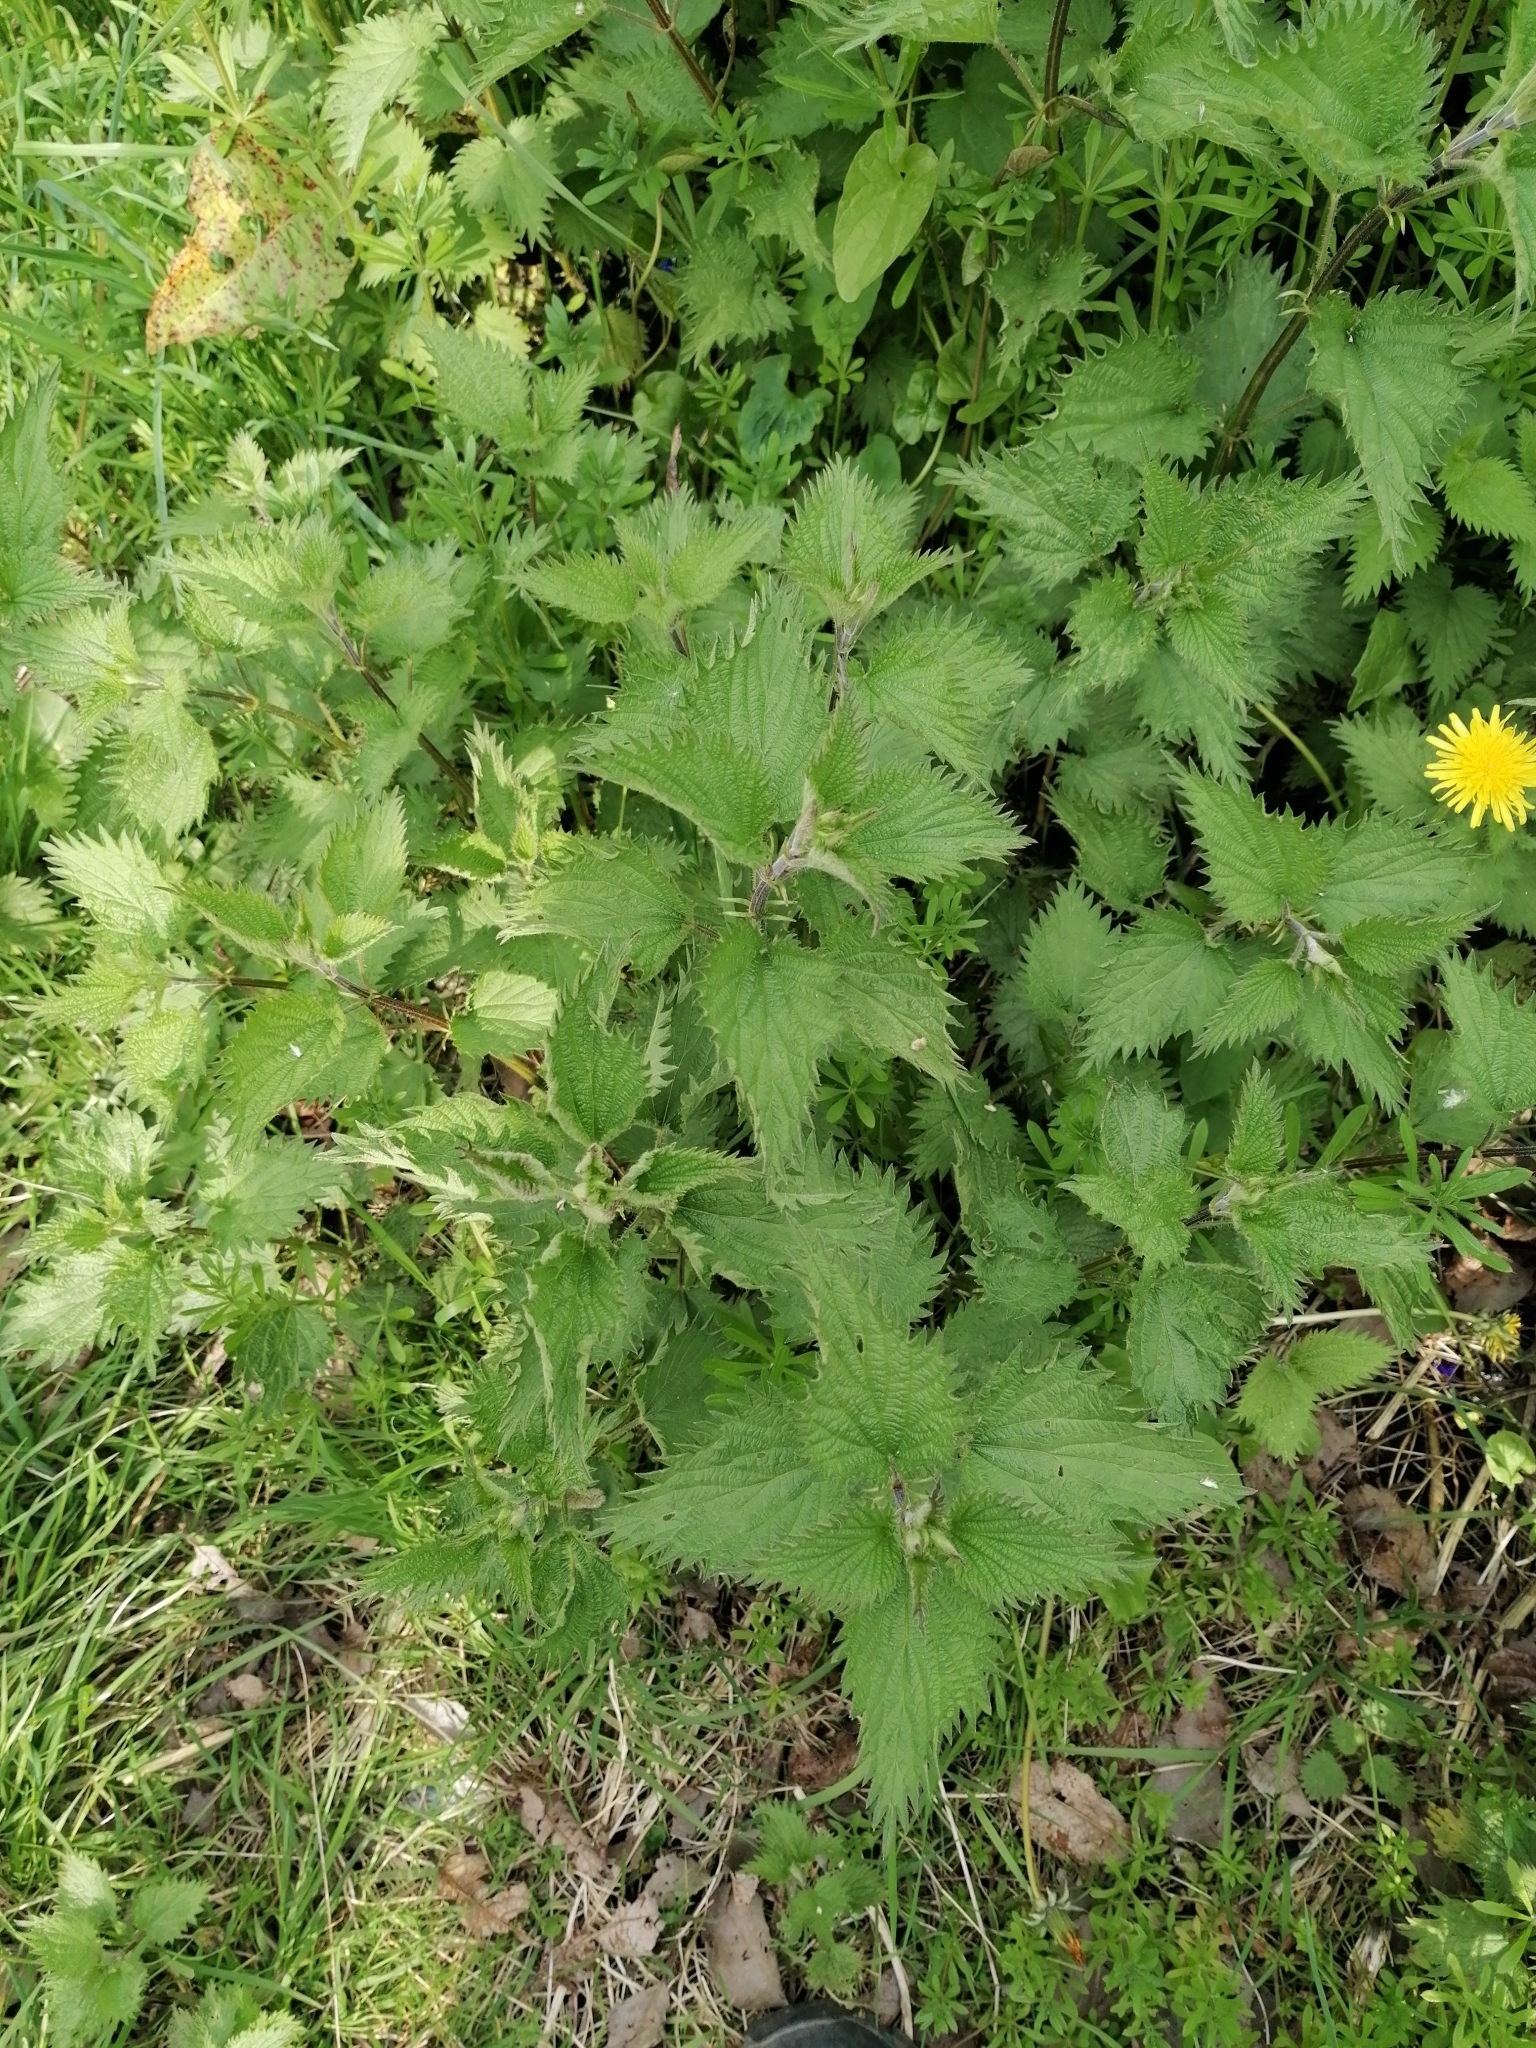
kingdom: Plantae
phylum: Tracheophyta
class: Magnoliopsida
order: Rosales
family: Urticaceae
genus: Urtica
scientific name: Urtica dioica
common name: Common nettle
